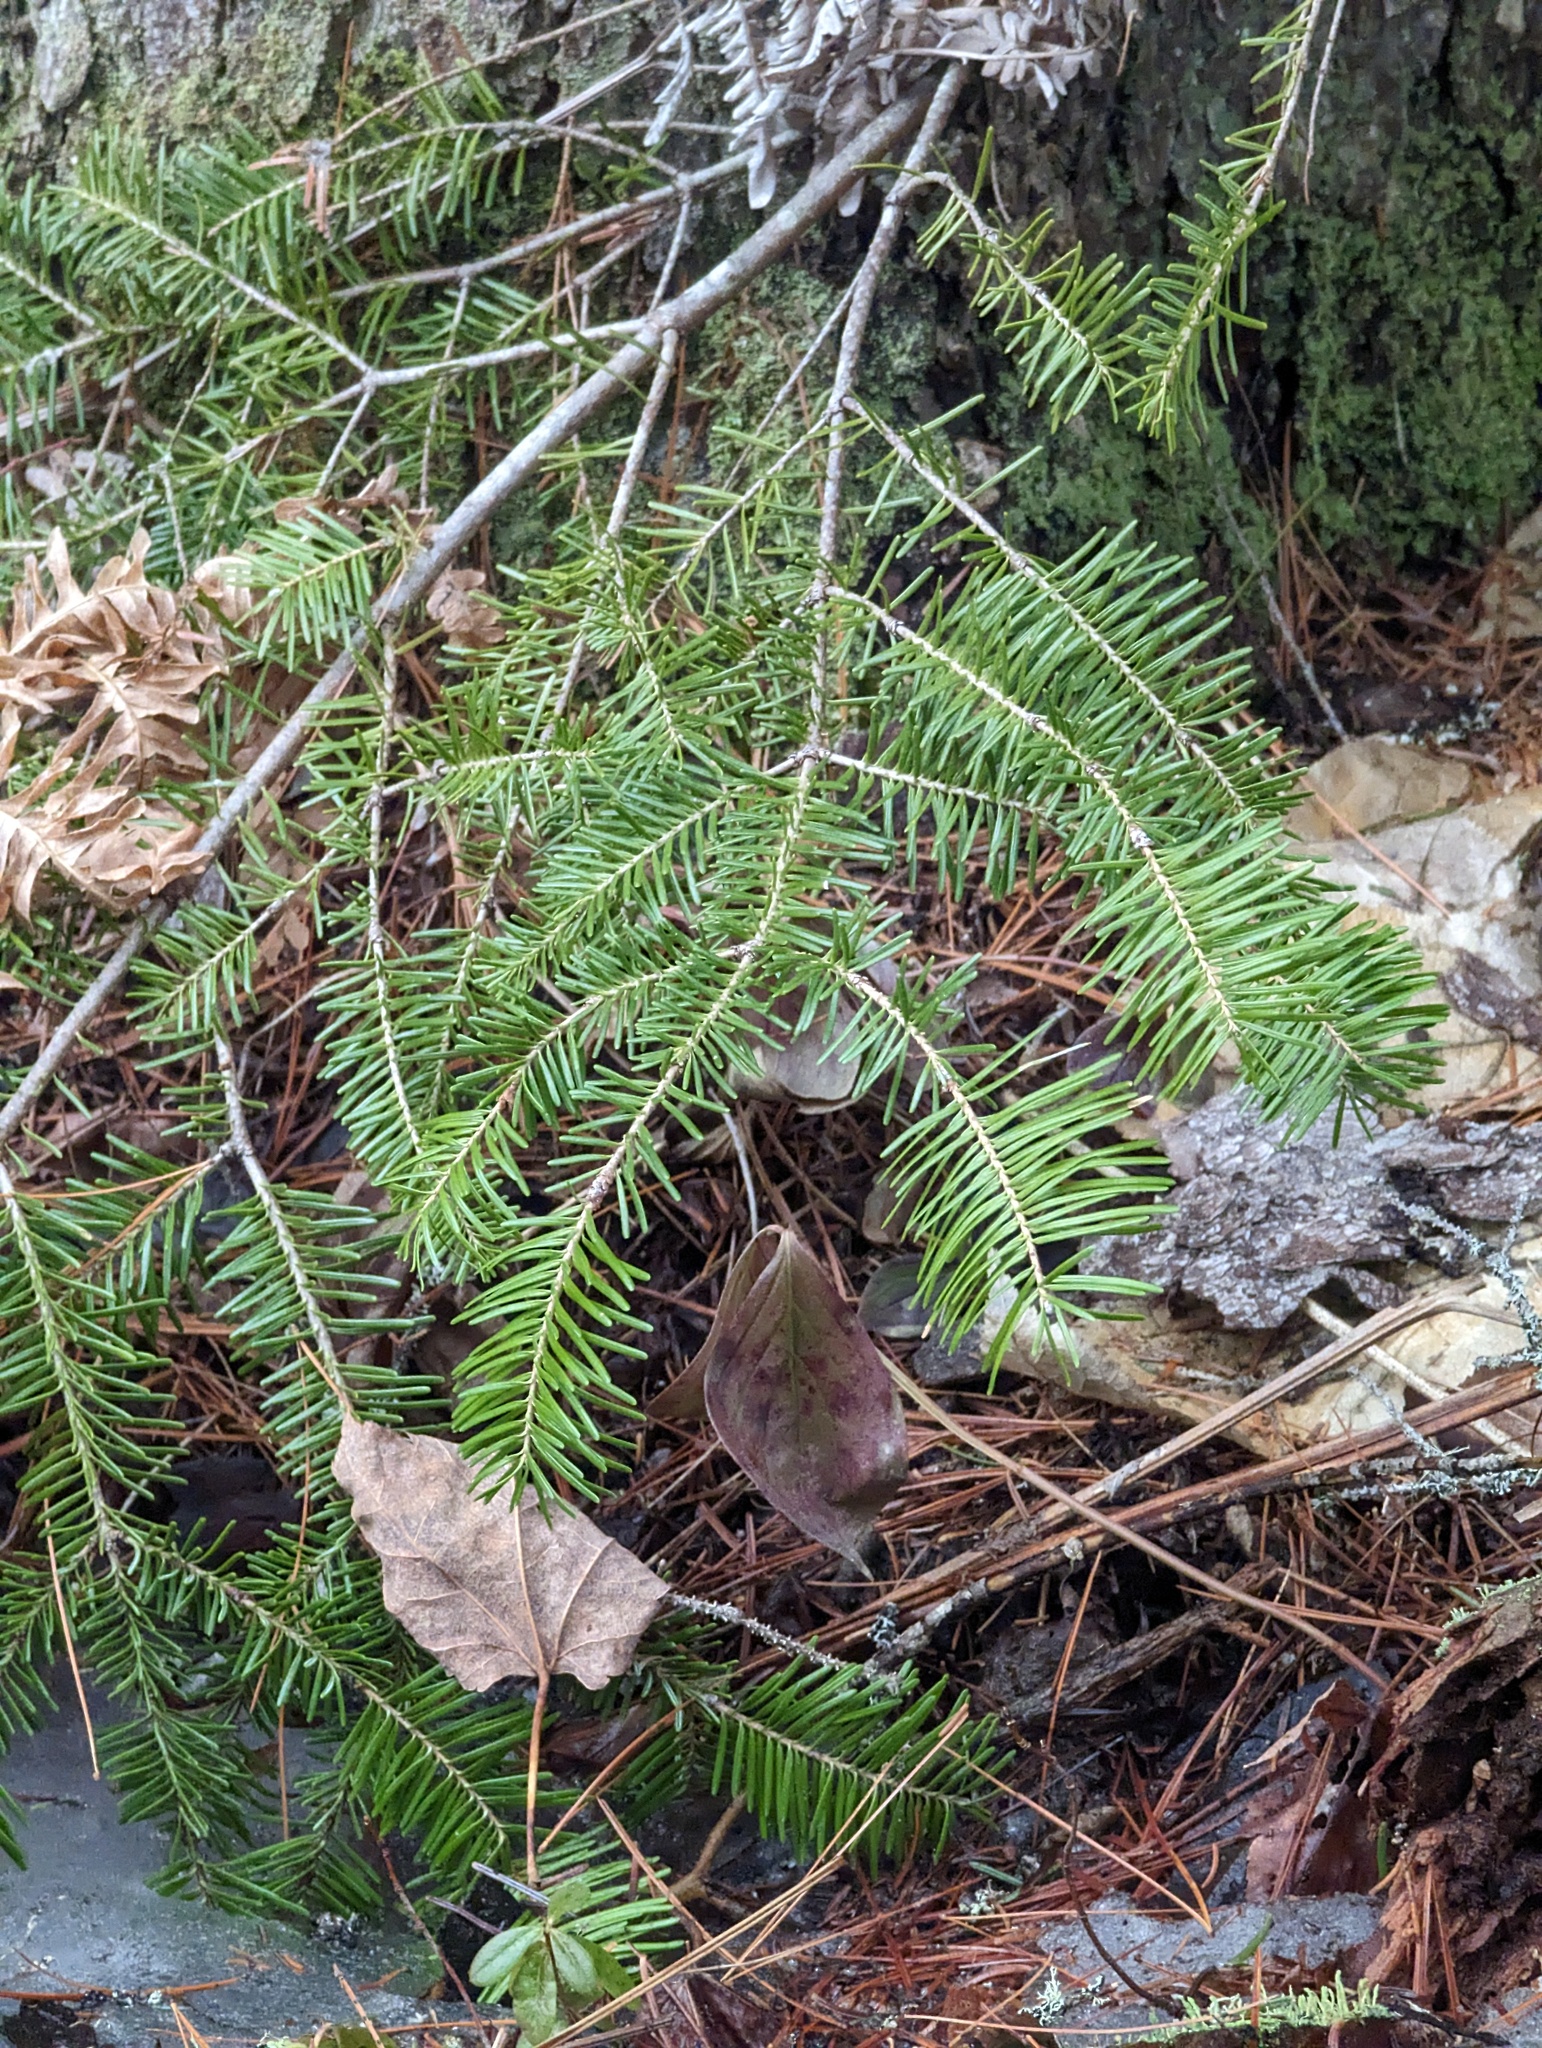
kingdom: Plantae
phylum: Tracheophyta
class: Pinopsida
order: Pinales
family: Pinaceae
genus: Abies
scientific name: Abies balsamea
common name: Balsam fir
